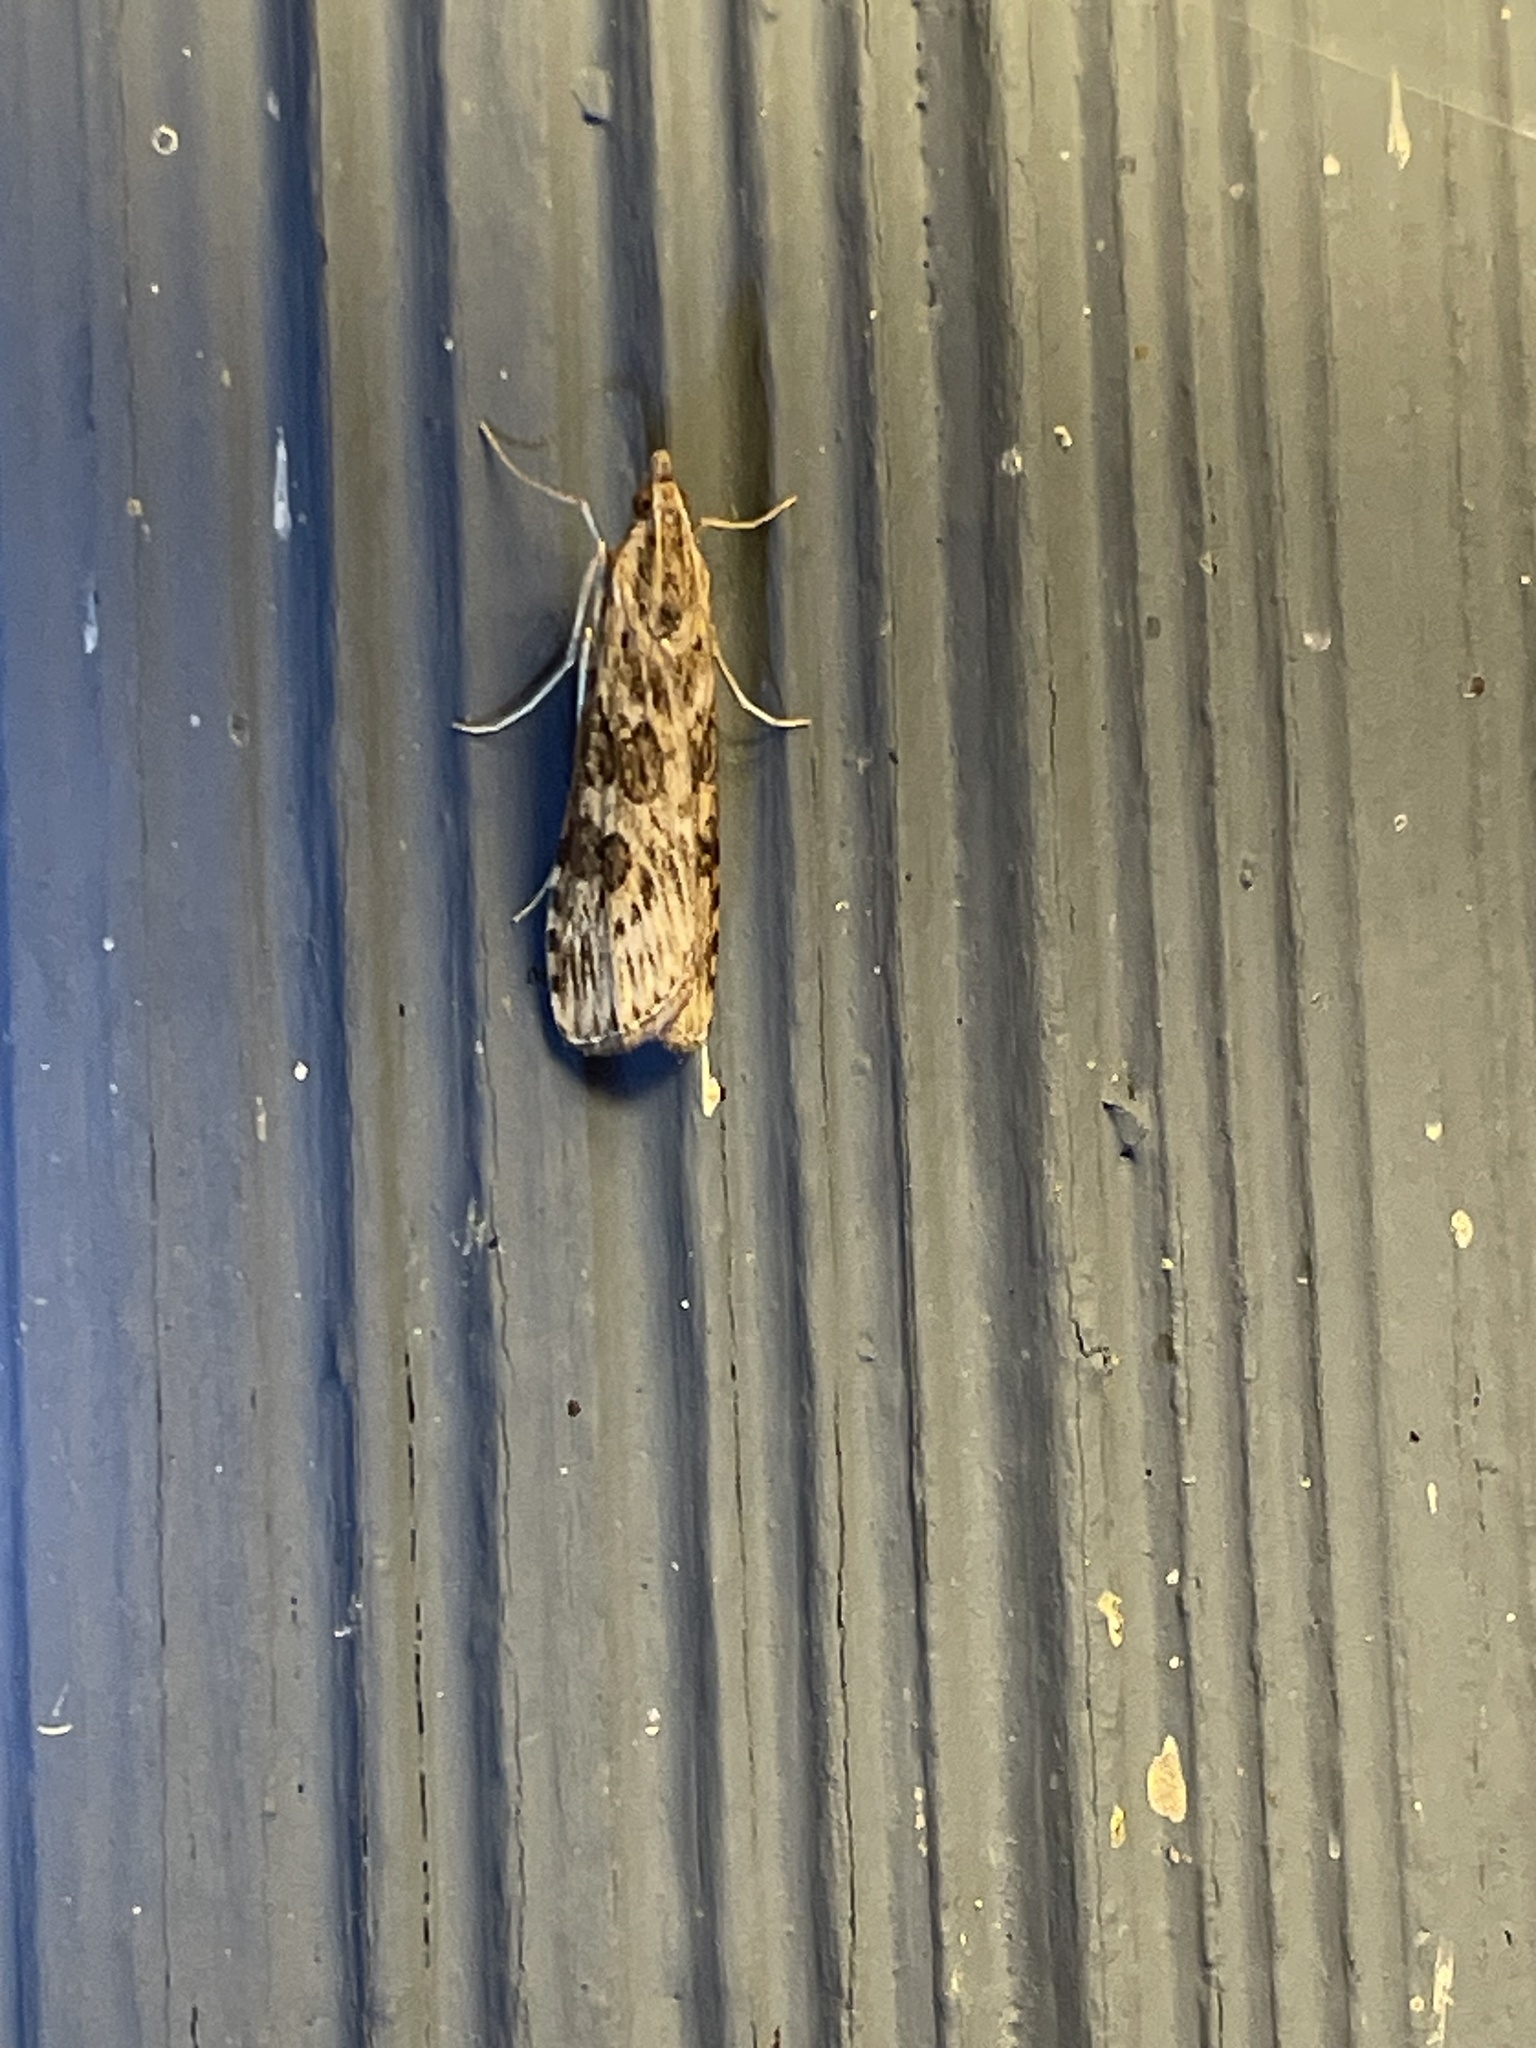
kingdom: Animalia
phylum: Arthropoda
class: Insecta
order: Lepidoptera
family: Crambidae
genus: Nomophila
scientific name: Nomophila nearctica
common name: American rush veneer
